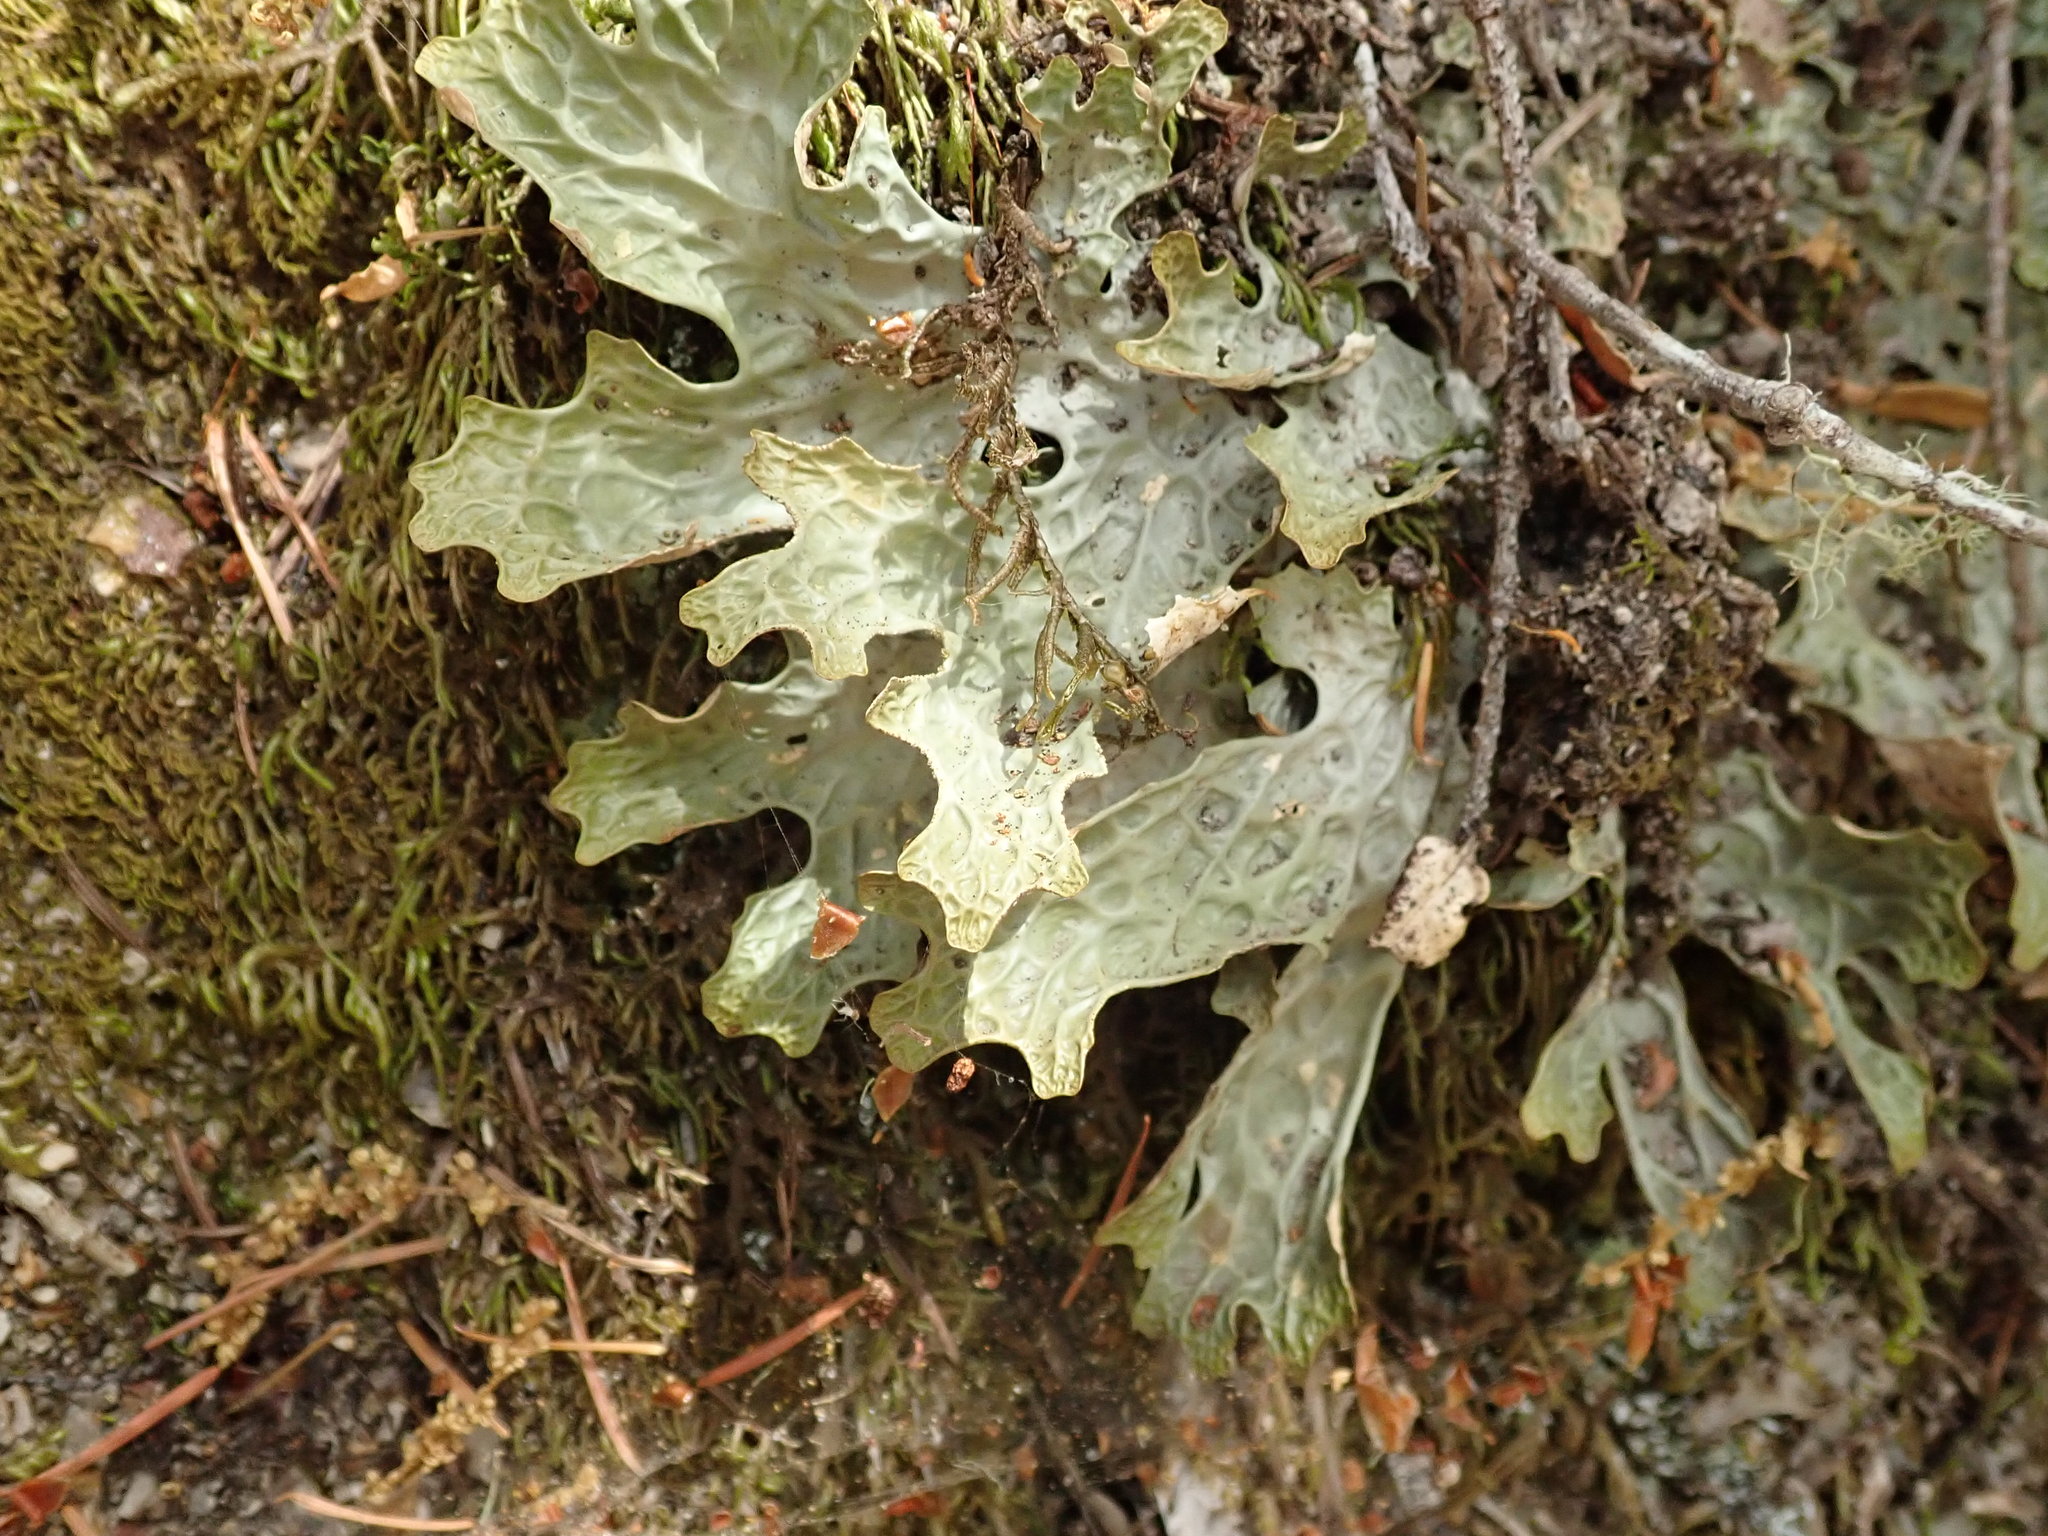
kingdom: Fungi
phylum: Ascomycota
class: Lecanoromycetes
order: Peltigerales
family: Lobariaceae
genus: Lobaria
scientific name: Lobaria pulmonaria
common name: Lungwort
